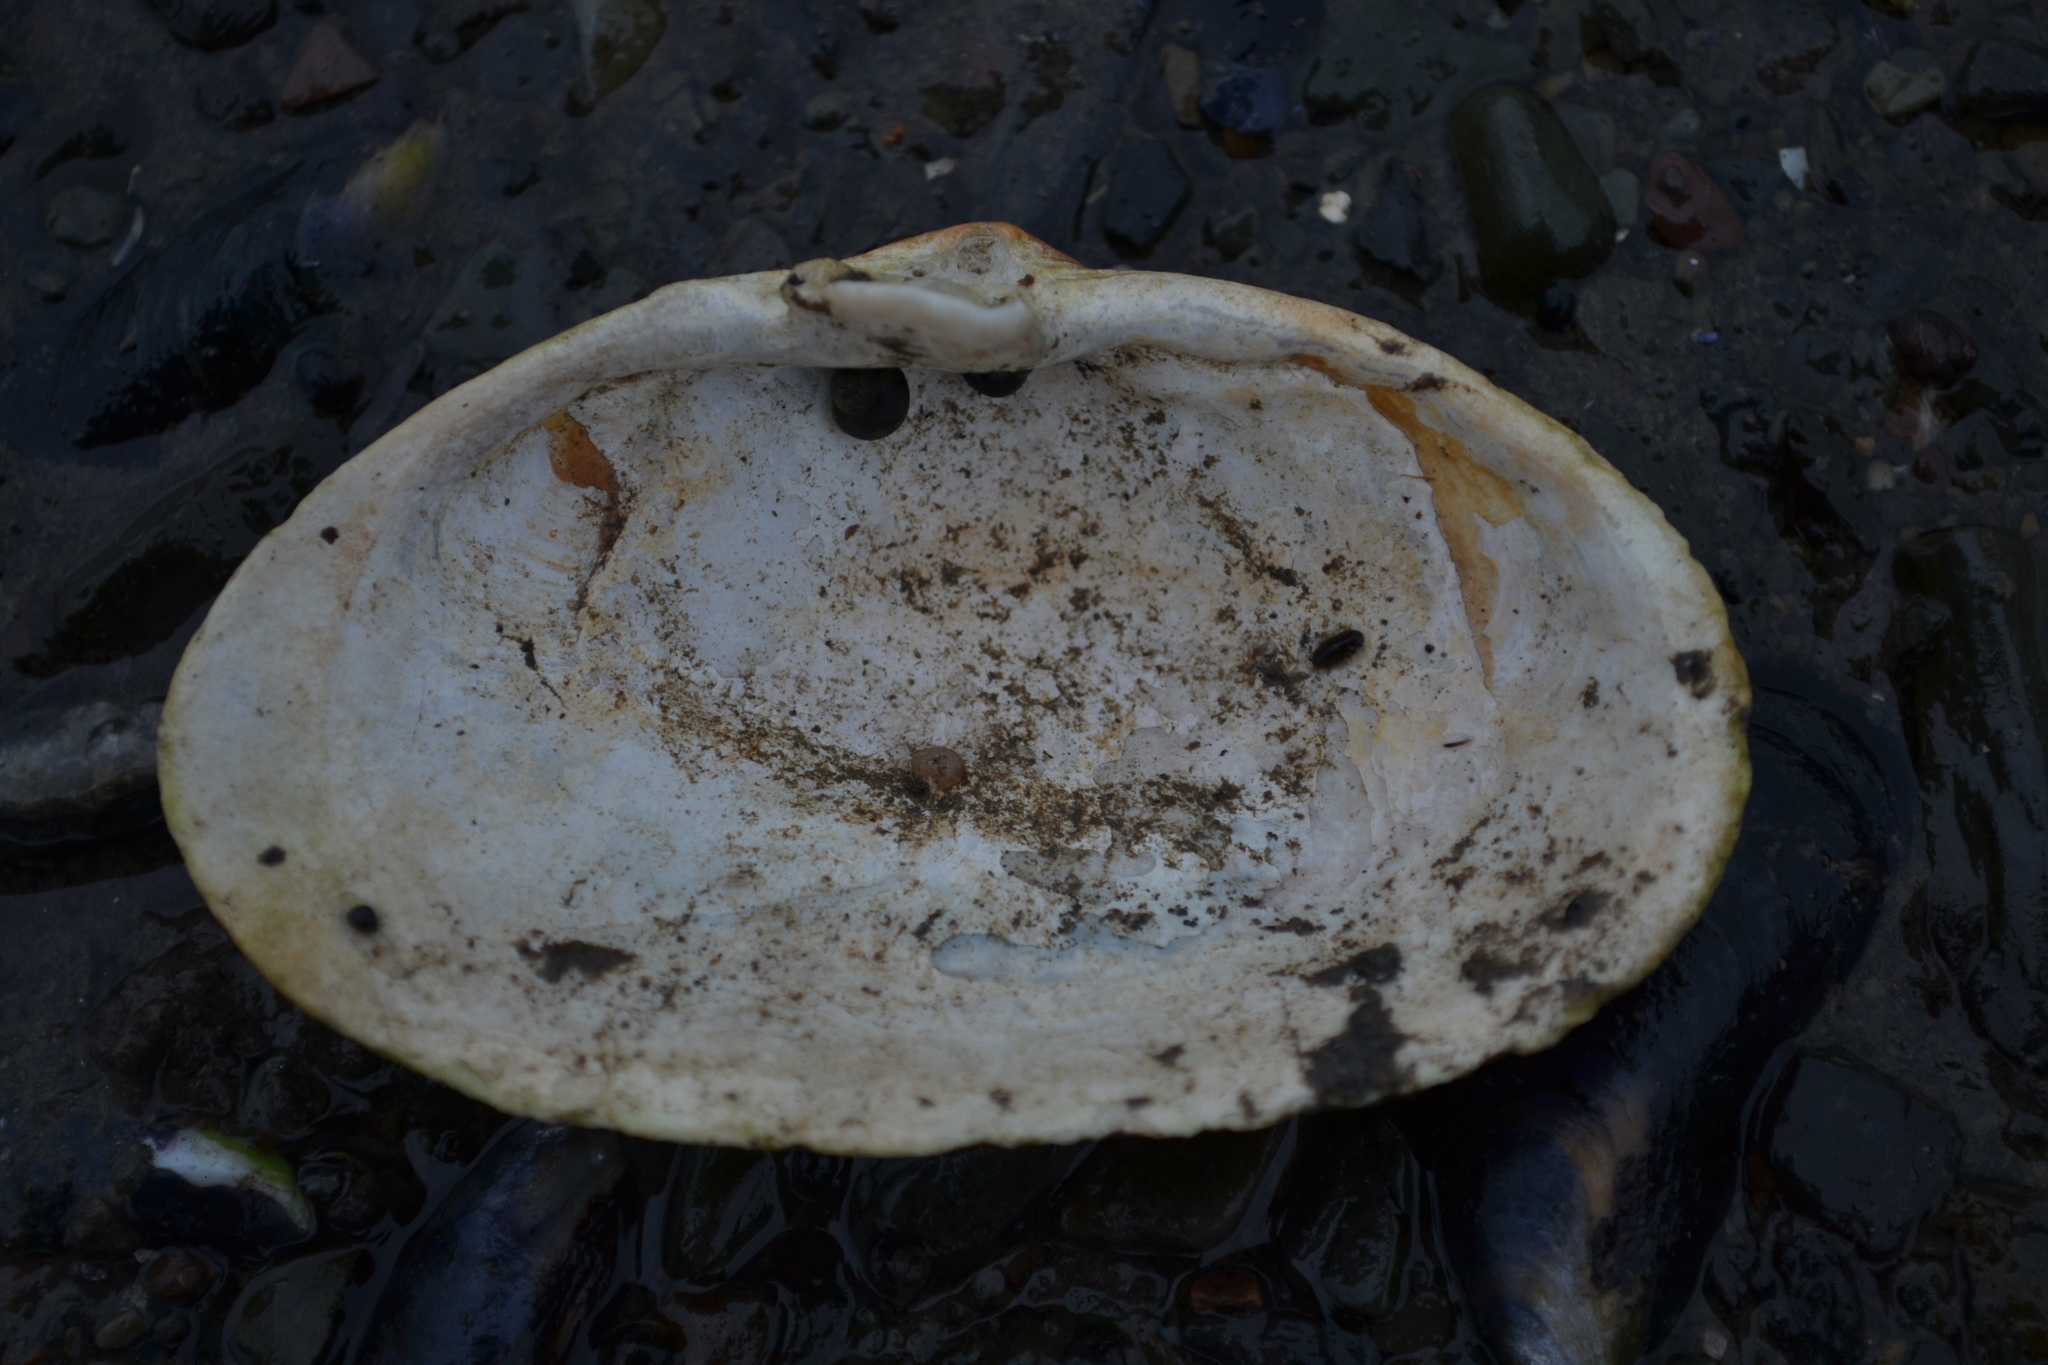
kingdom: Animalia
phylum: Mollusca
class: Bivalvia
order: Myida
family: Myidae
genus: Mya
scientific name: Mya arenaria
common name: Soft-shelled clam
